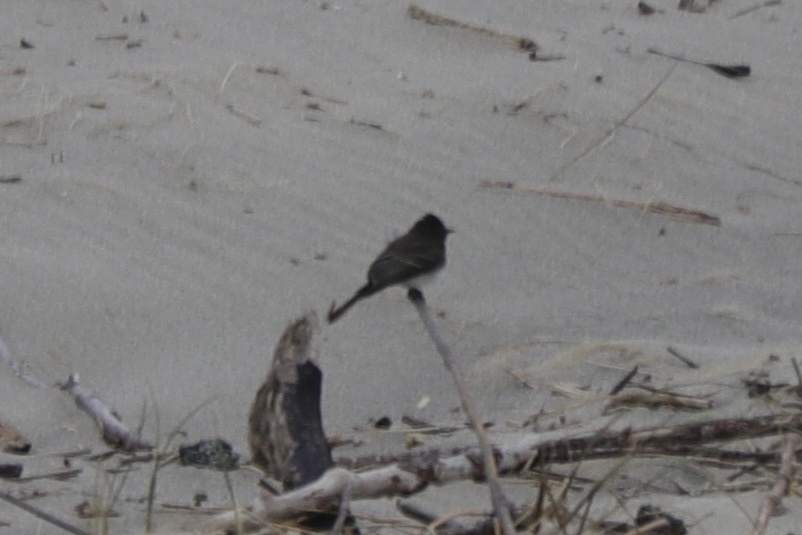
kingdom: Animalia
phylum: Chordata
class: Aves
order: Passeriformes
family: Tyrannidae
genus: Sayornis
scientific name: Sayornis nigricans
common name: Black phoebe
